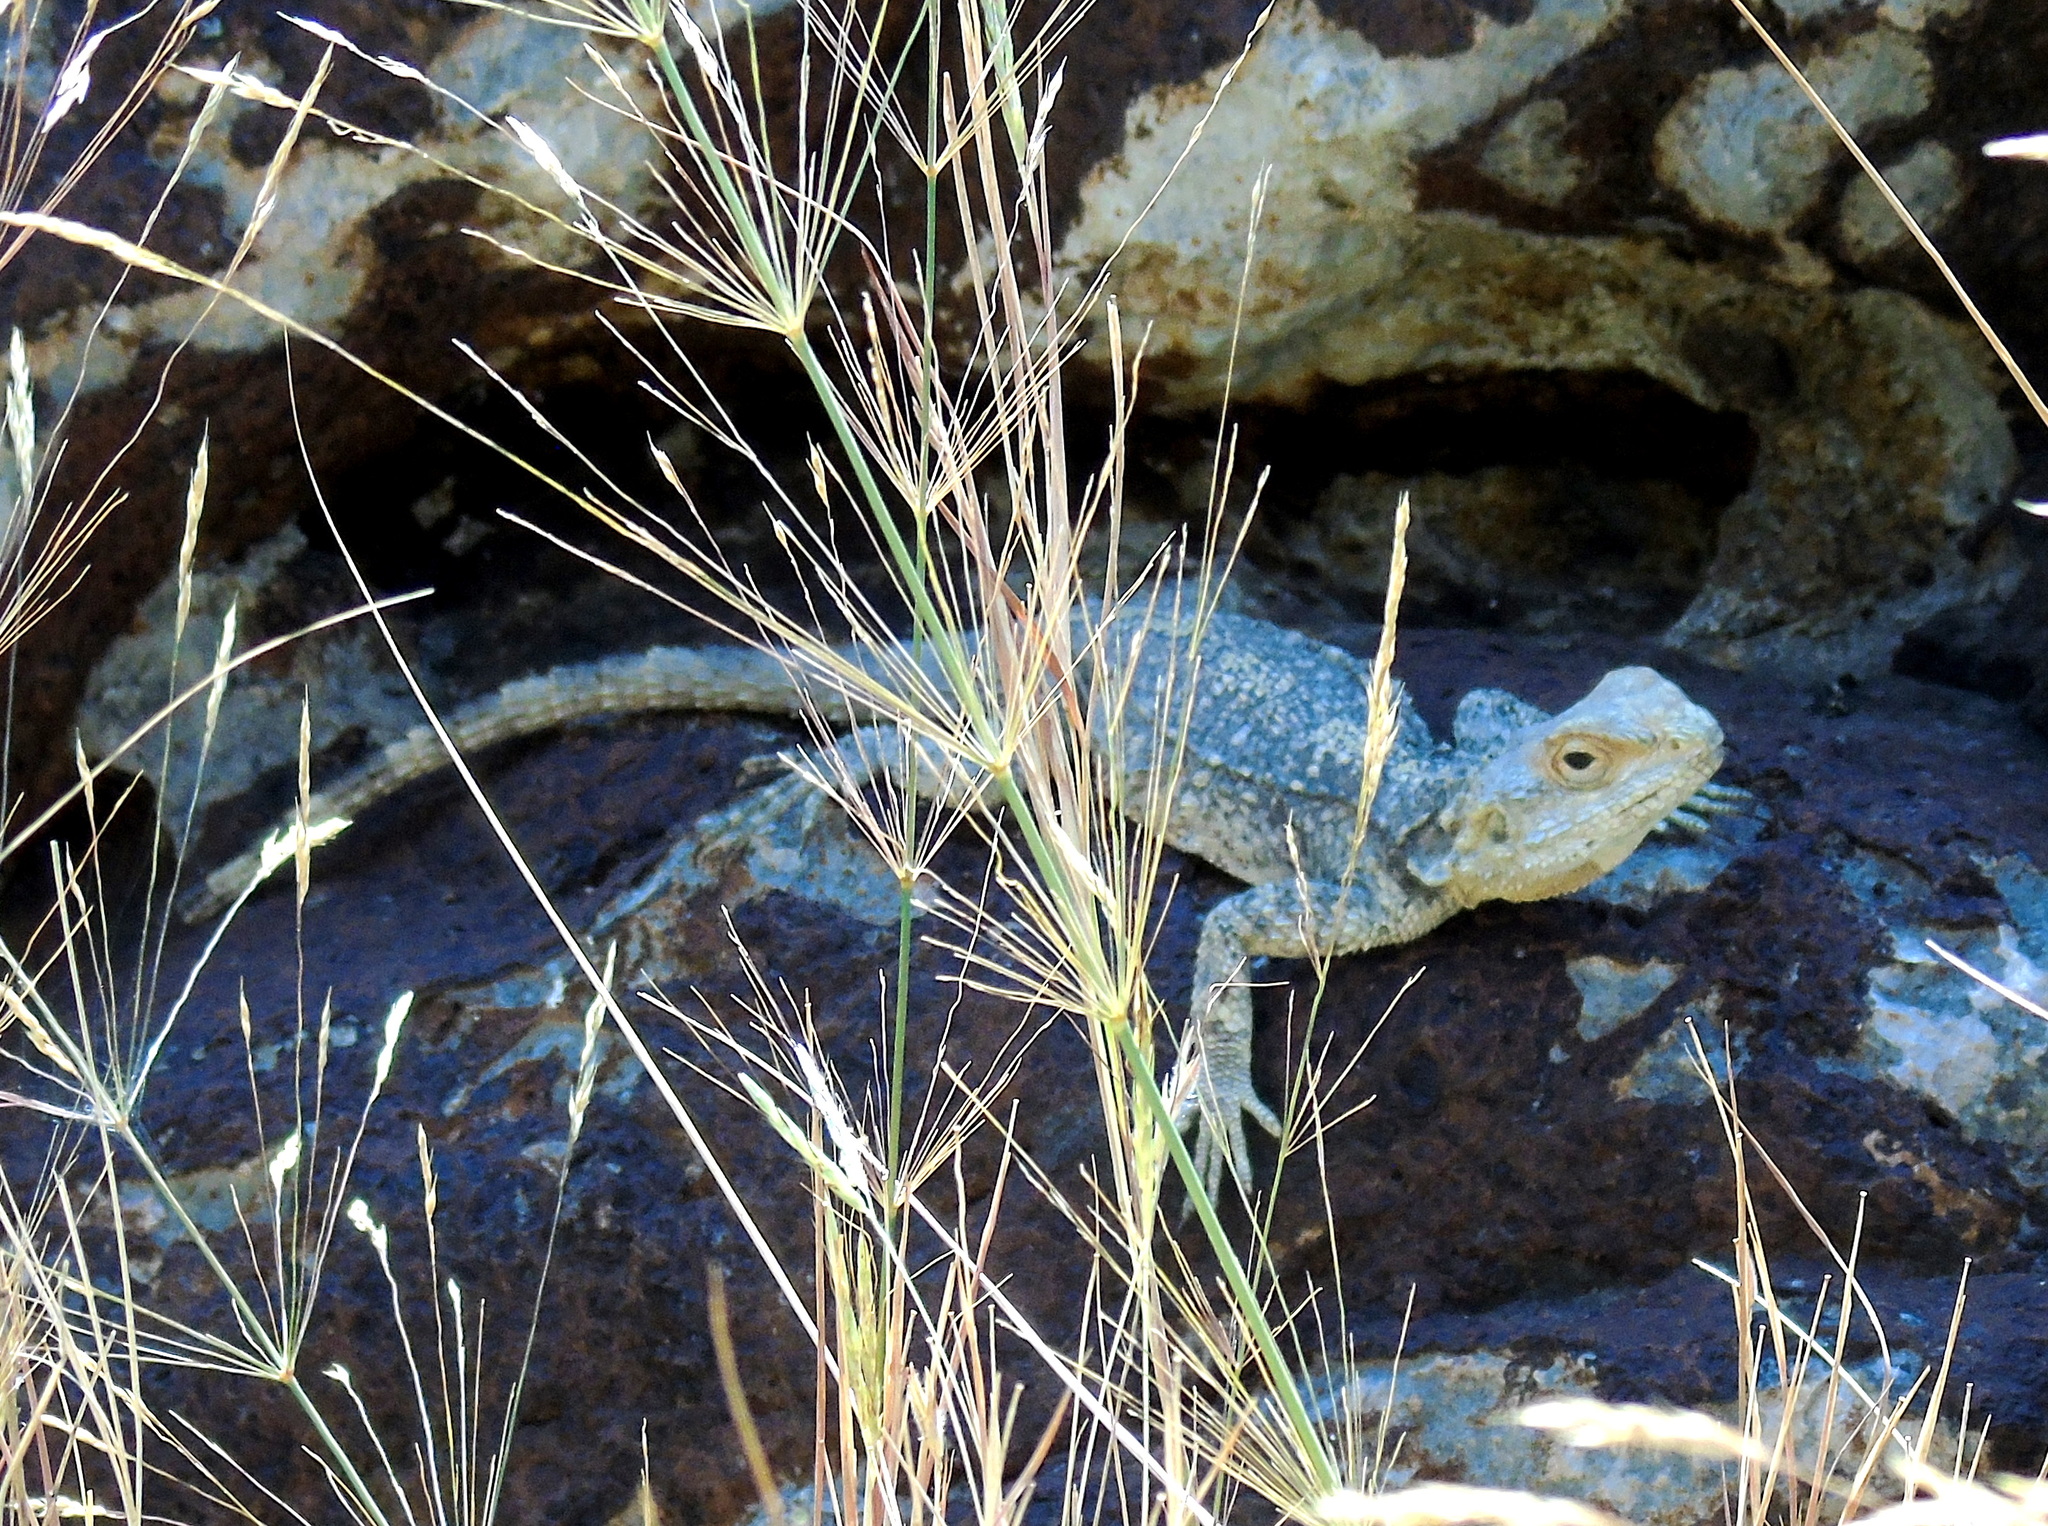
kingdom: Animalia
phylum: Chordata
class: Squamata
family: Agamidae
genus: Stellagama
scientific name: Stellagama stellio
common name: Starred agama
